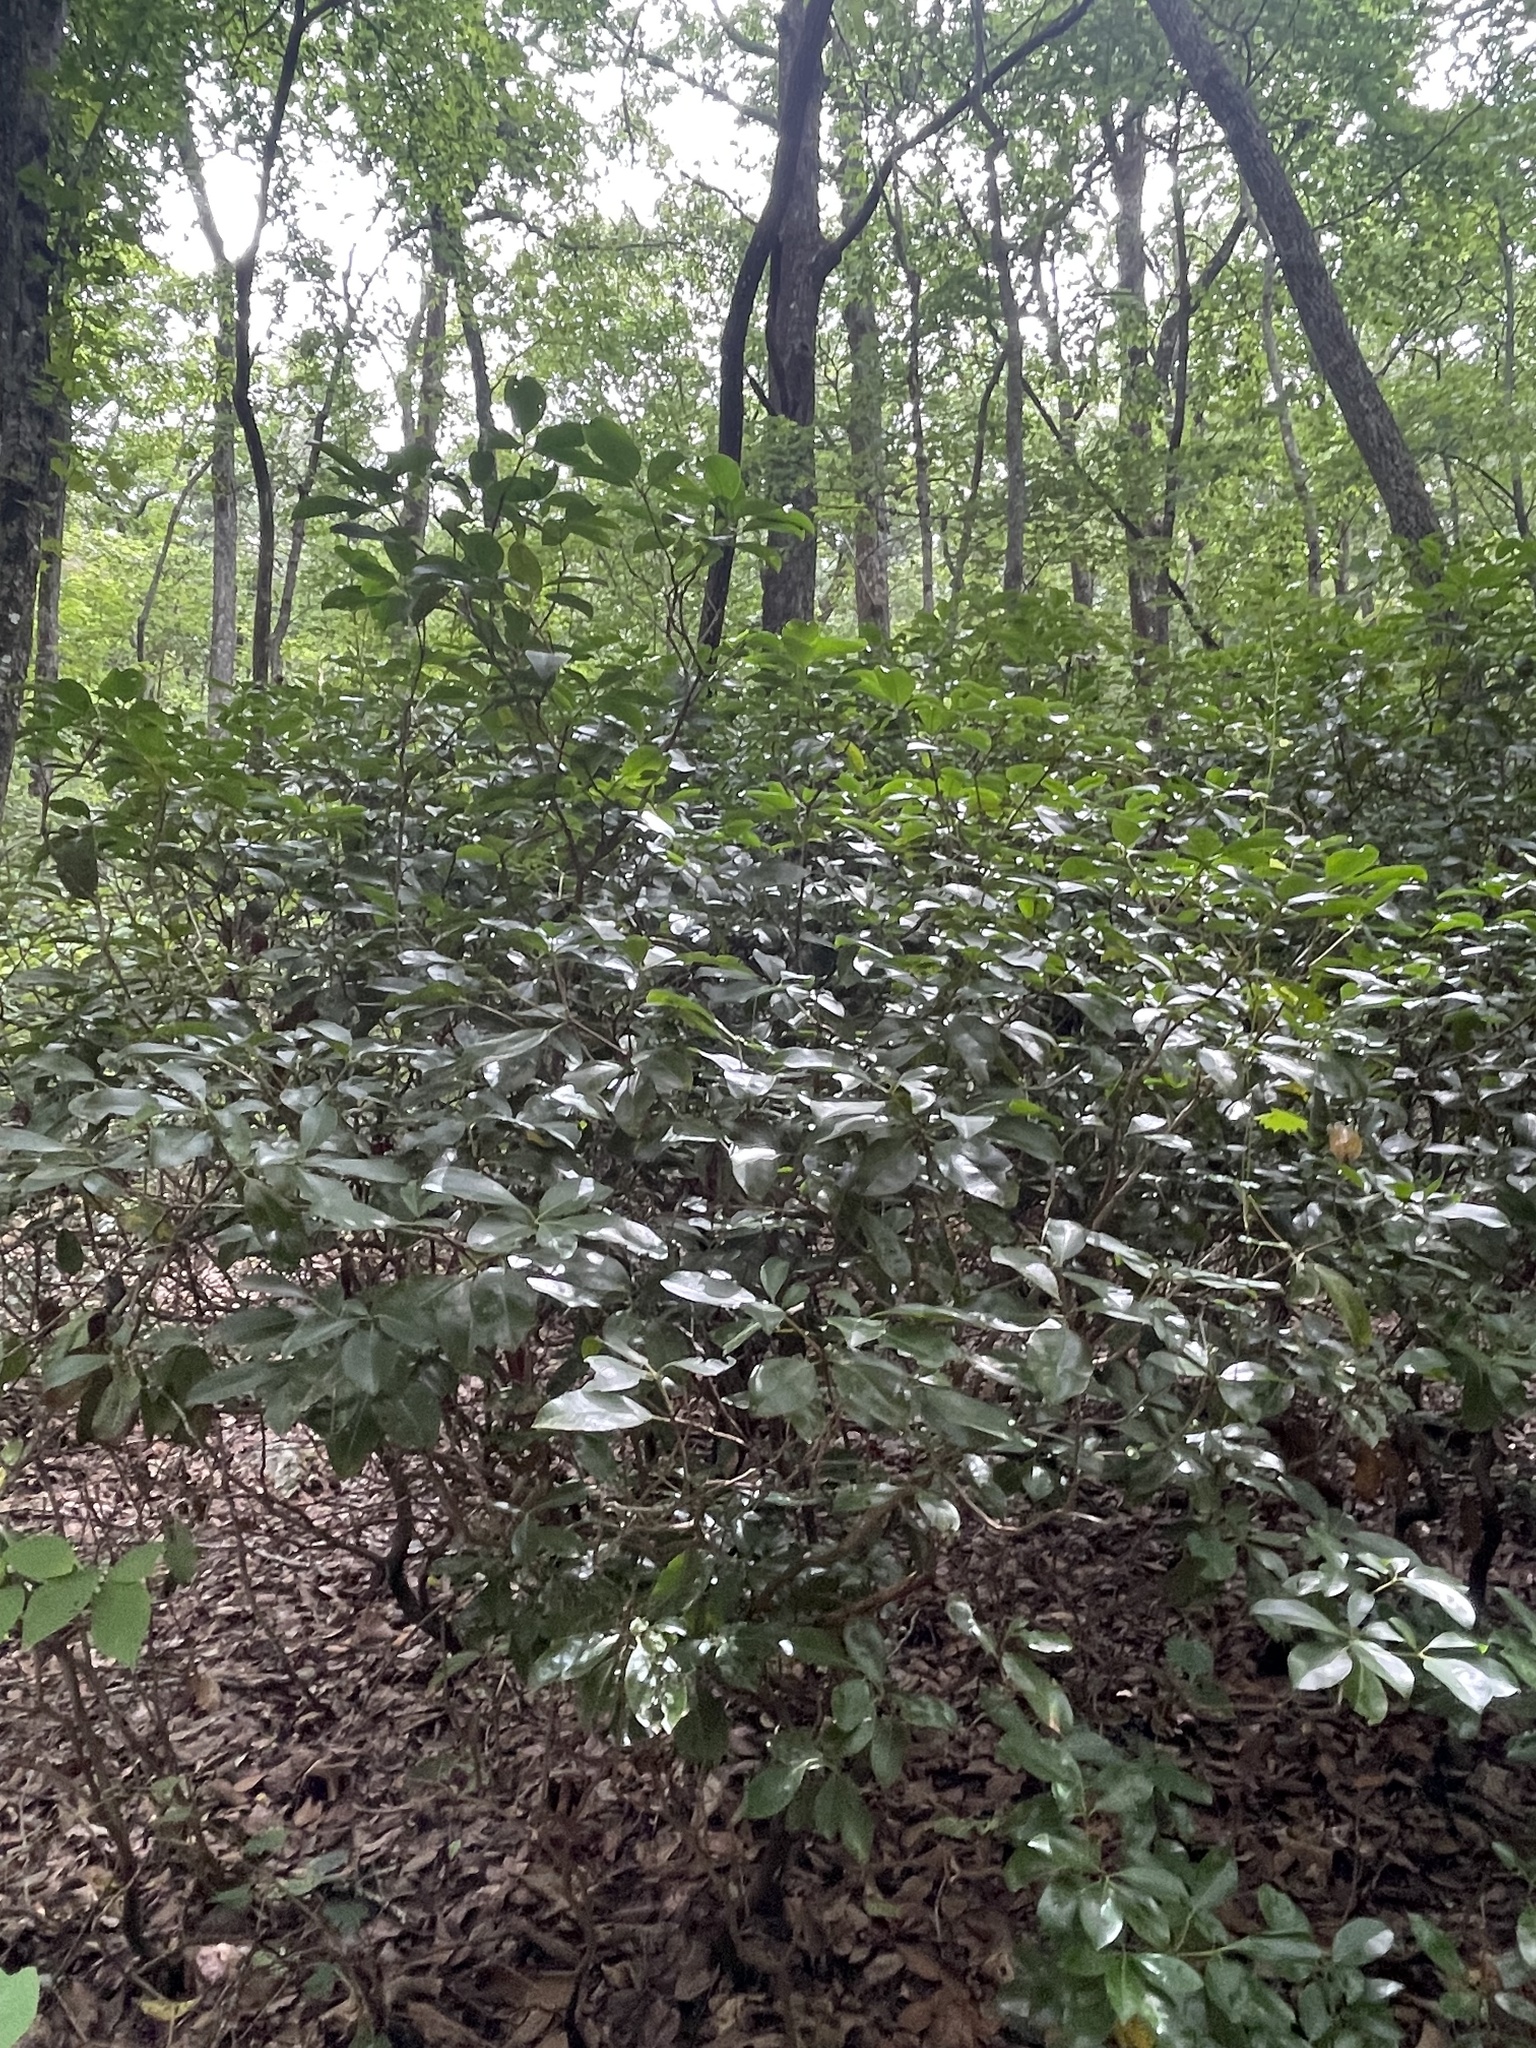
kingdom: Plantae
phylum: Tracheophyta
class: Magnoliopsida
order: Ericales
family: Ericaceae
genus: Kalmia
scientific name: Kalmia latifolia
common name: Mountain-laurel
